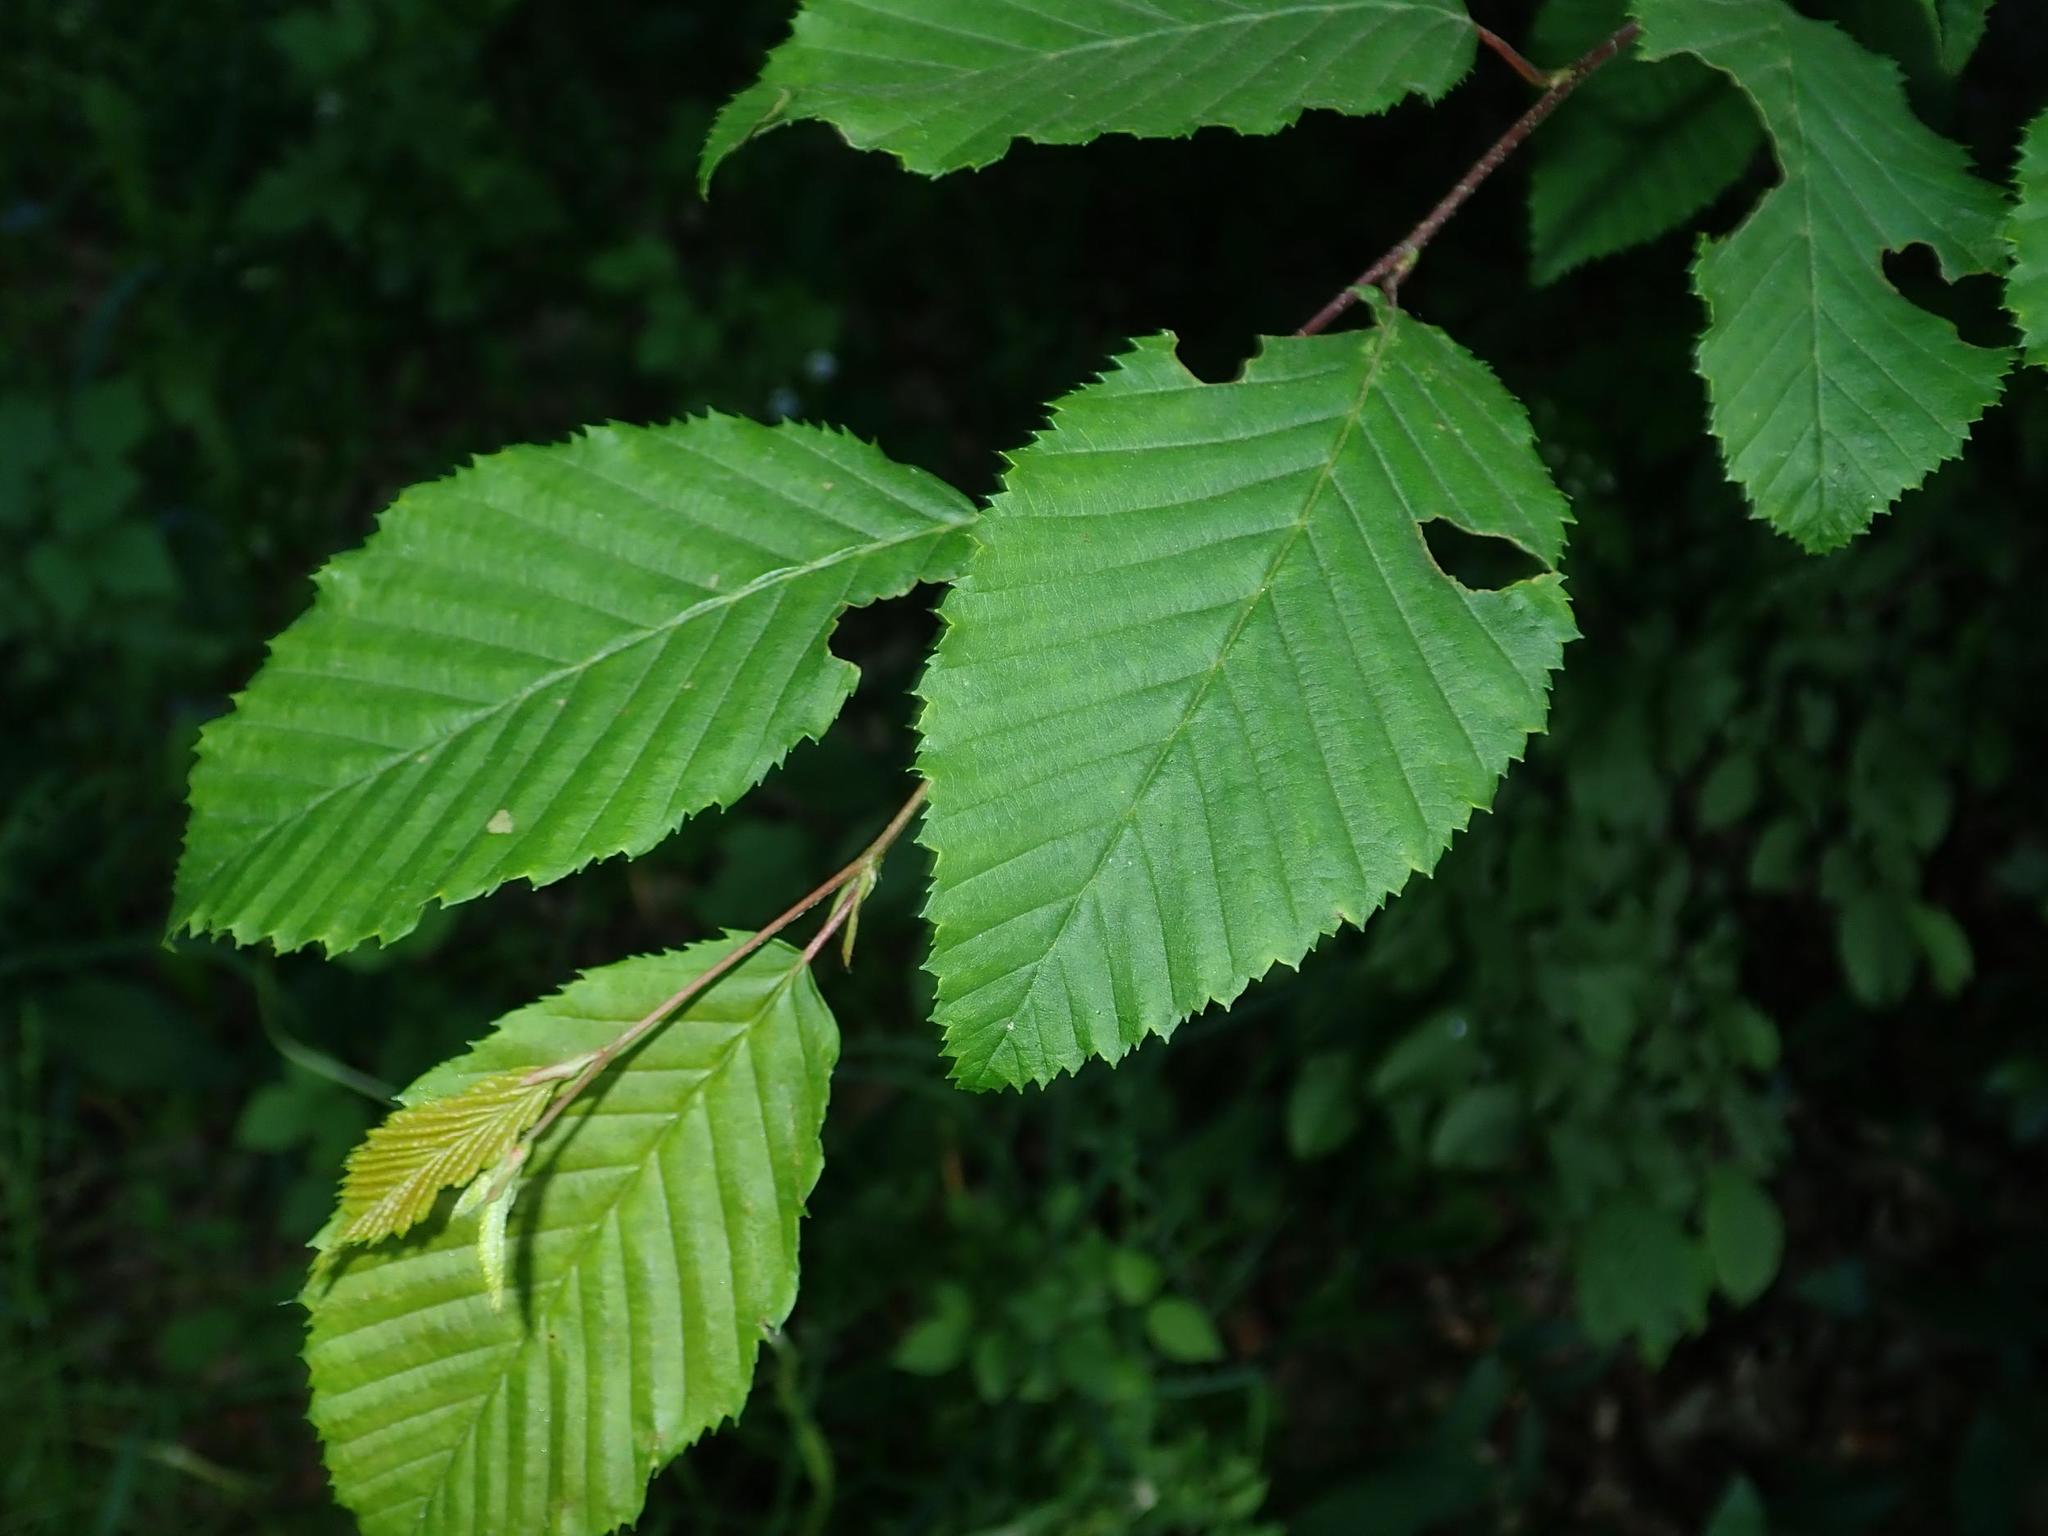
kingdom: Plantae
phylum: Tracheophyta
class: Magnoliopsida
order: Fagales
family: Betulaceae
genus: Carpinus
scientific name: Carpinus betulus
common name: Hornbeam
